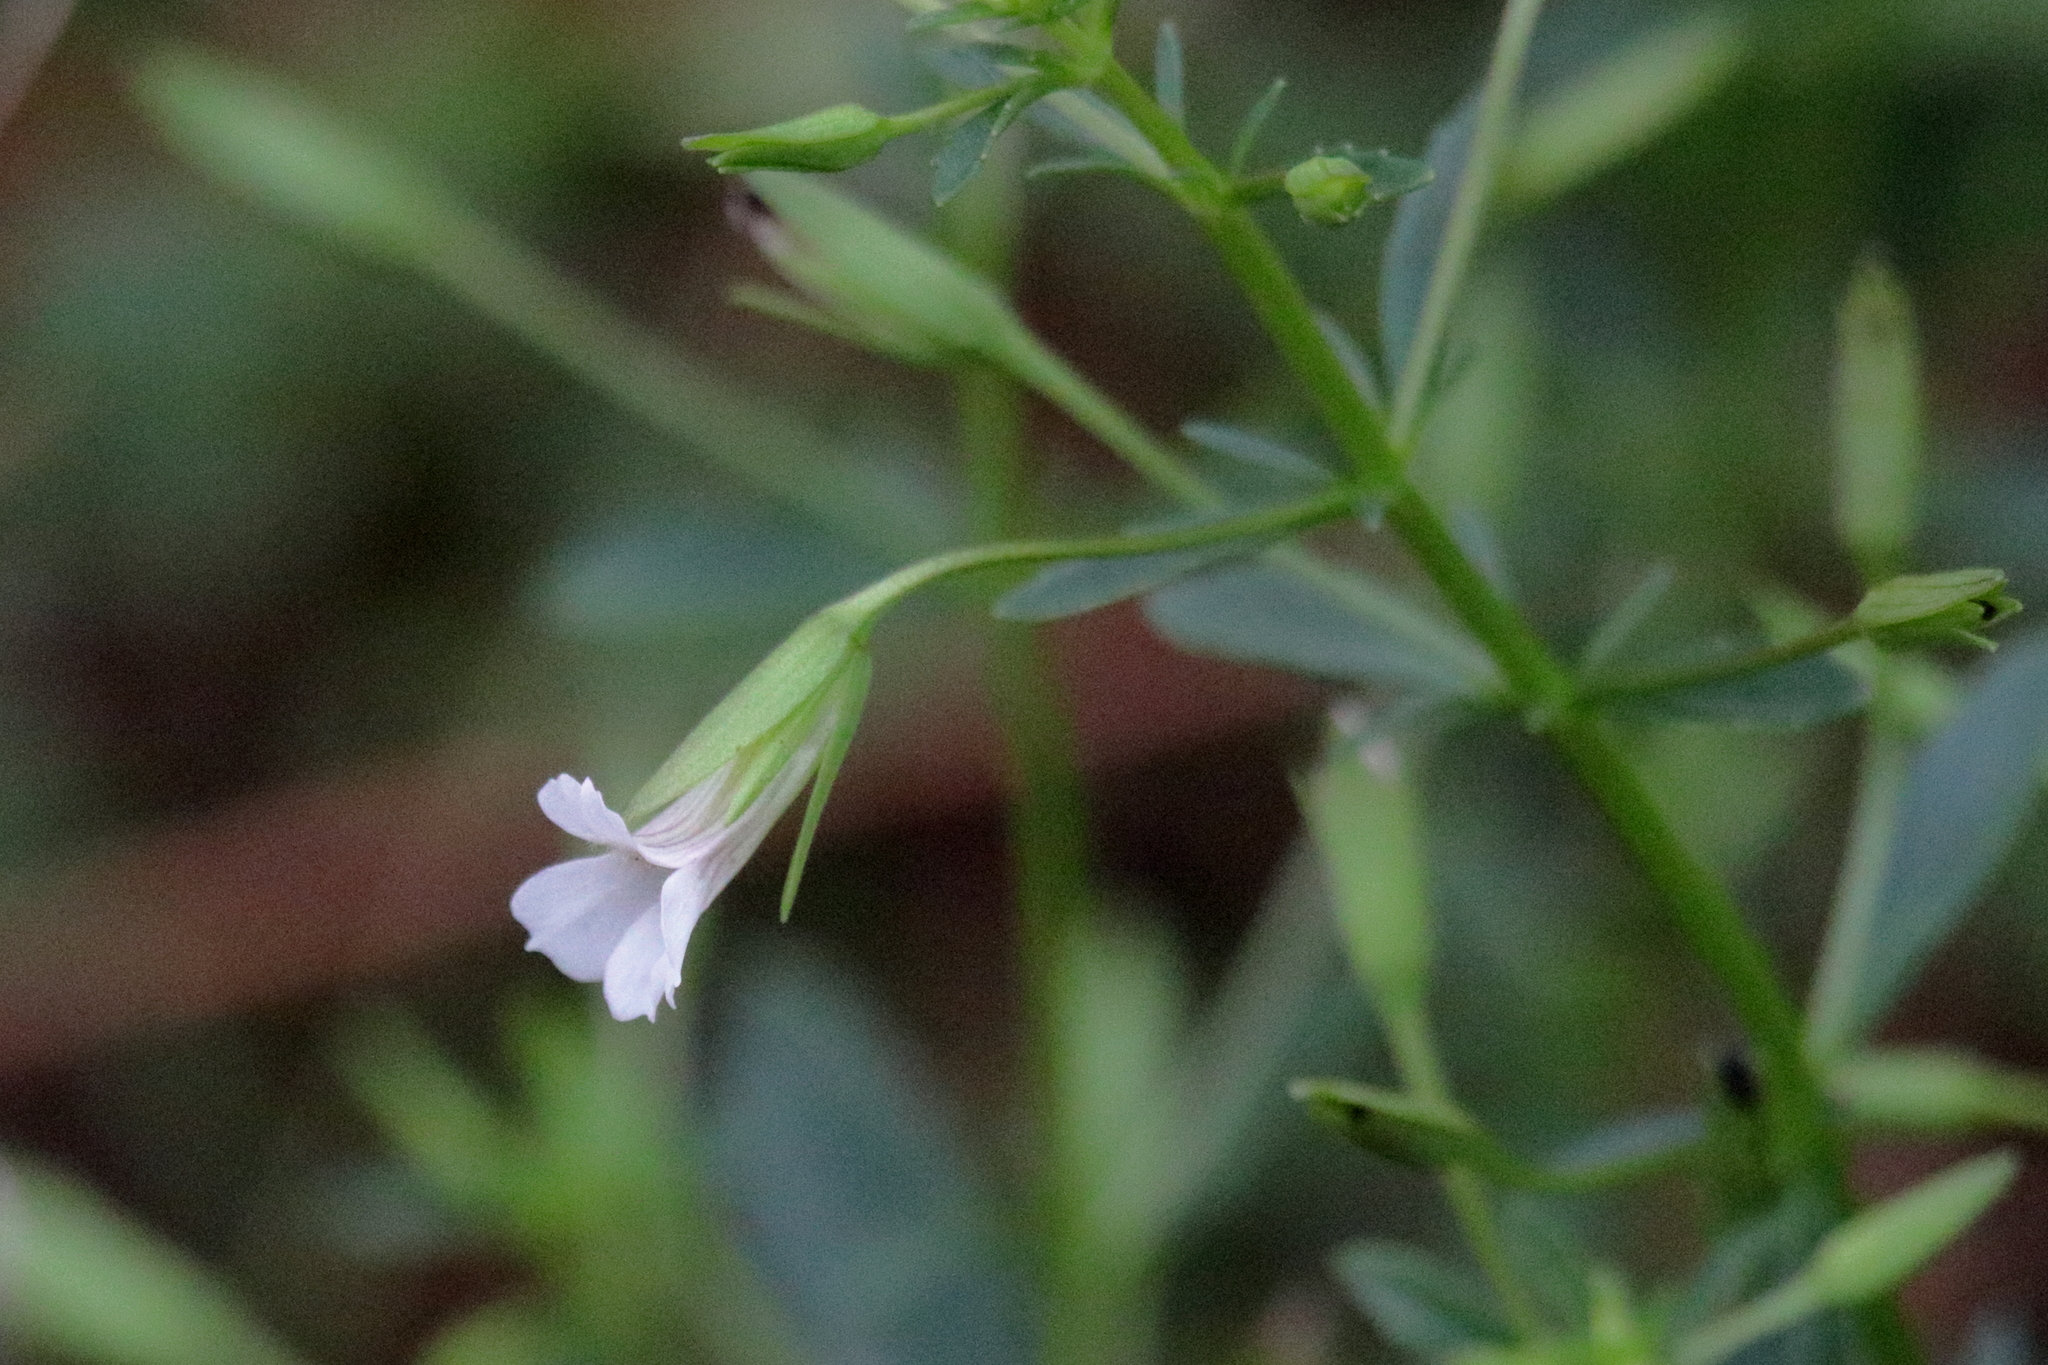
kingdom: Plantae
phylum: Tracheophyta
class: Magnoliopsida
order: Lamiales
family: Plantaginaceae
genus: Mecardonia
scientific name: Mecardonia acuminata
